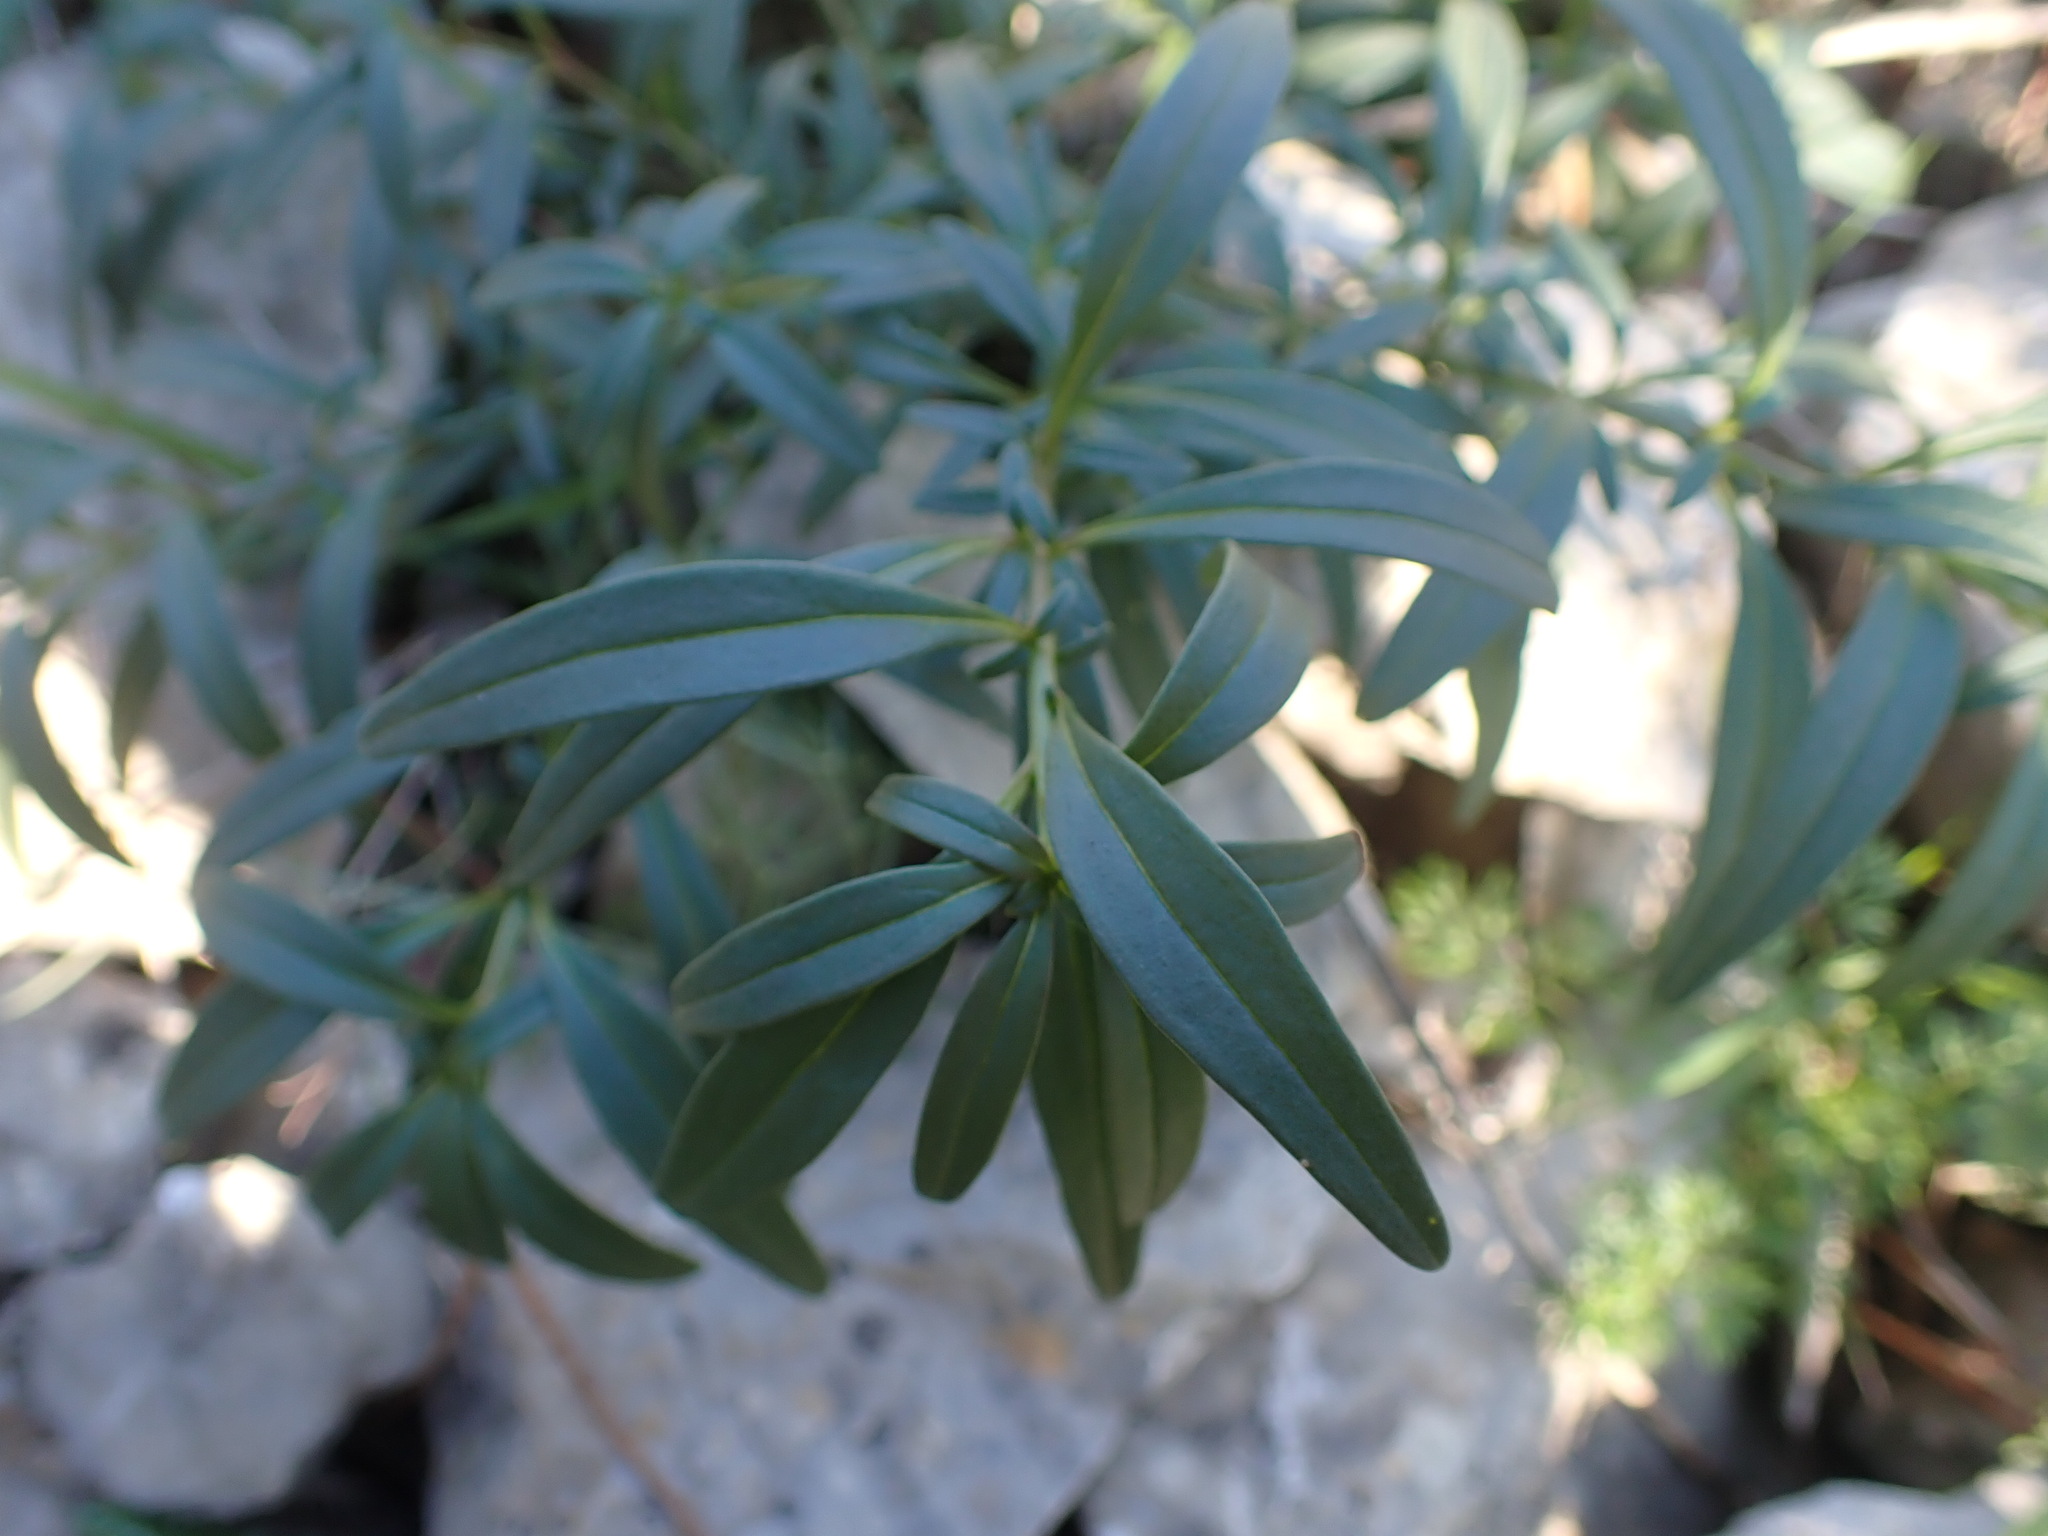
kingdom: Plantae
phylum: Tracheophyta
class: Magnoliopsida
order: Lamiales
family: Plantaginaceae
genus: Antirrhinum
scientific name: Antirrhinum majus
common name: Snapdragon
